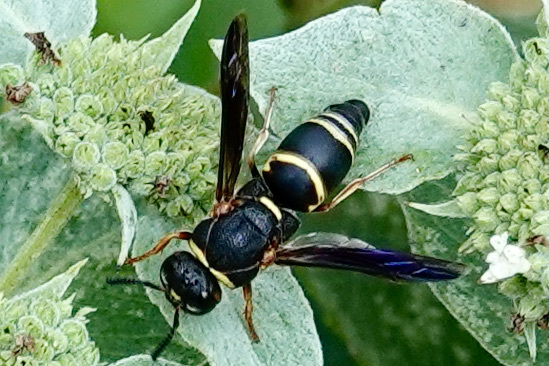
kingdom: Animalia
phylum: Arthropoda
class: Insecta
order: Hymenoptera
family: Eumenidae
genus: Euodynerus
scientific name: Euodynerus hidalgo
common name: Wasp
